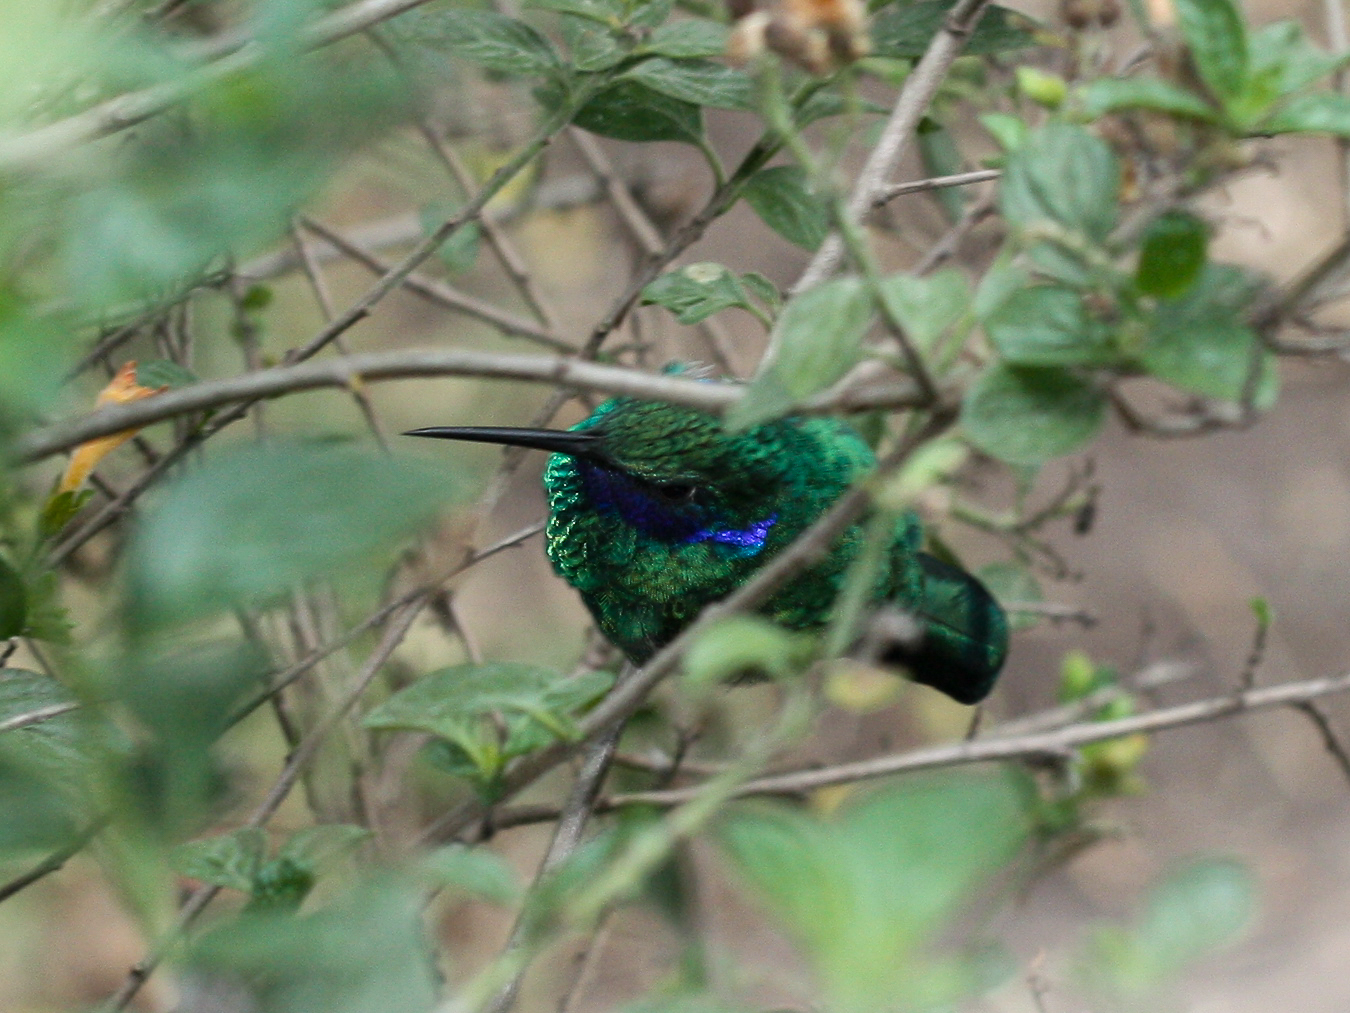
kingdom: Animalia
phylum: Chordata
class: Aves
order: Apodiformes
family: Trochilidae
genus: Colibri
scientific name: Colibri coruscans
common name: Sparkling violetear
